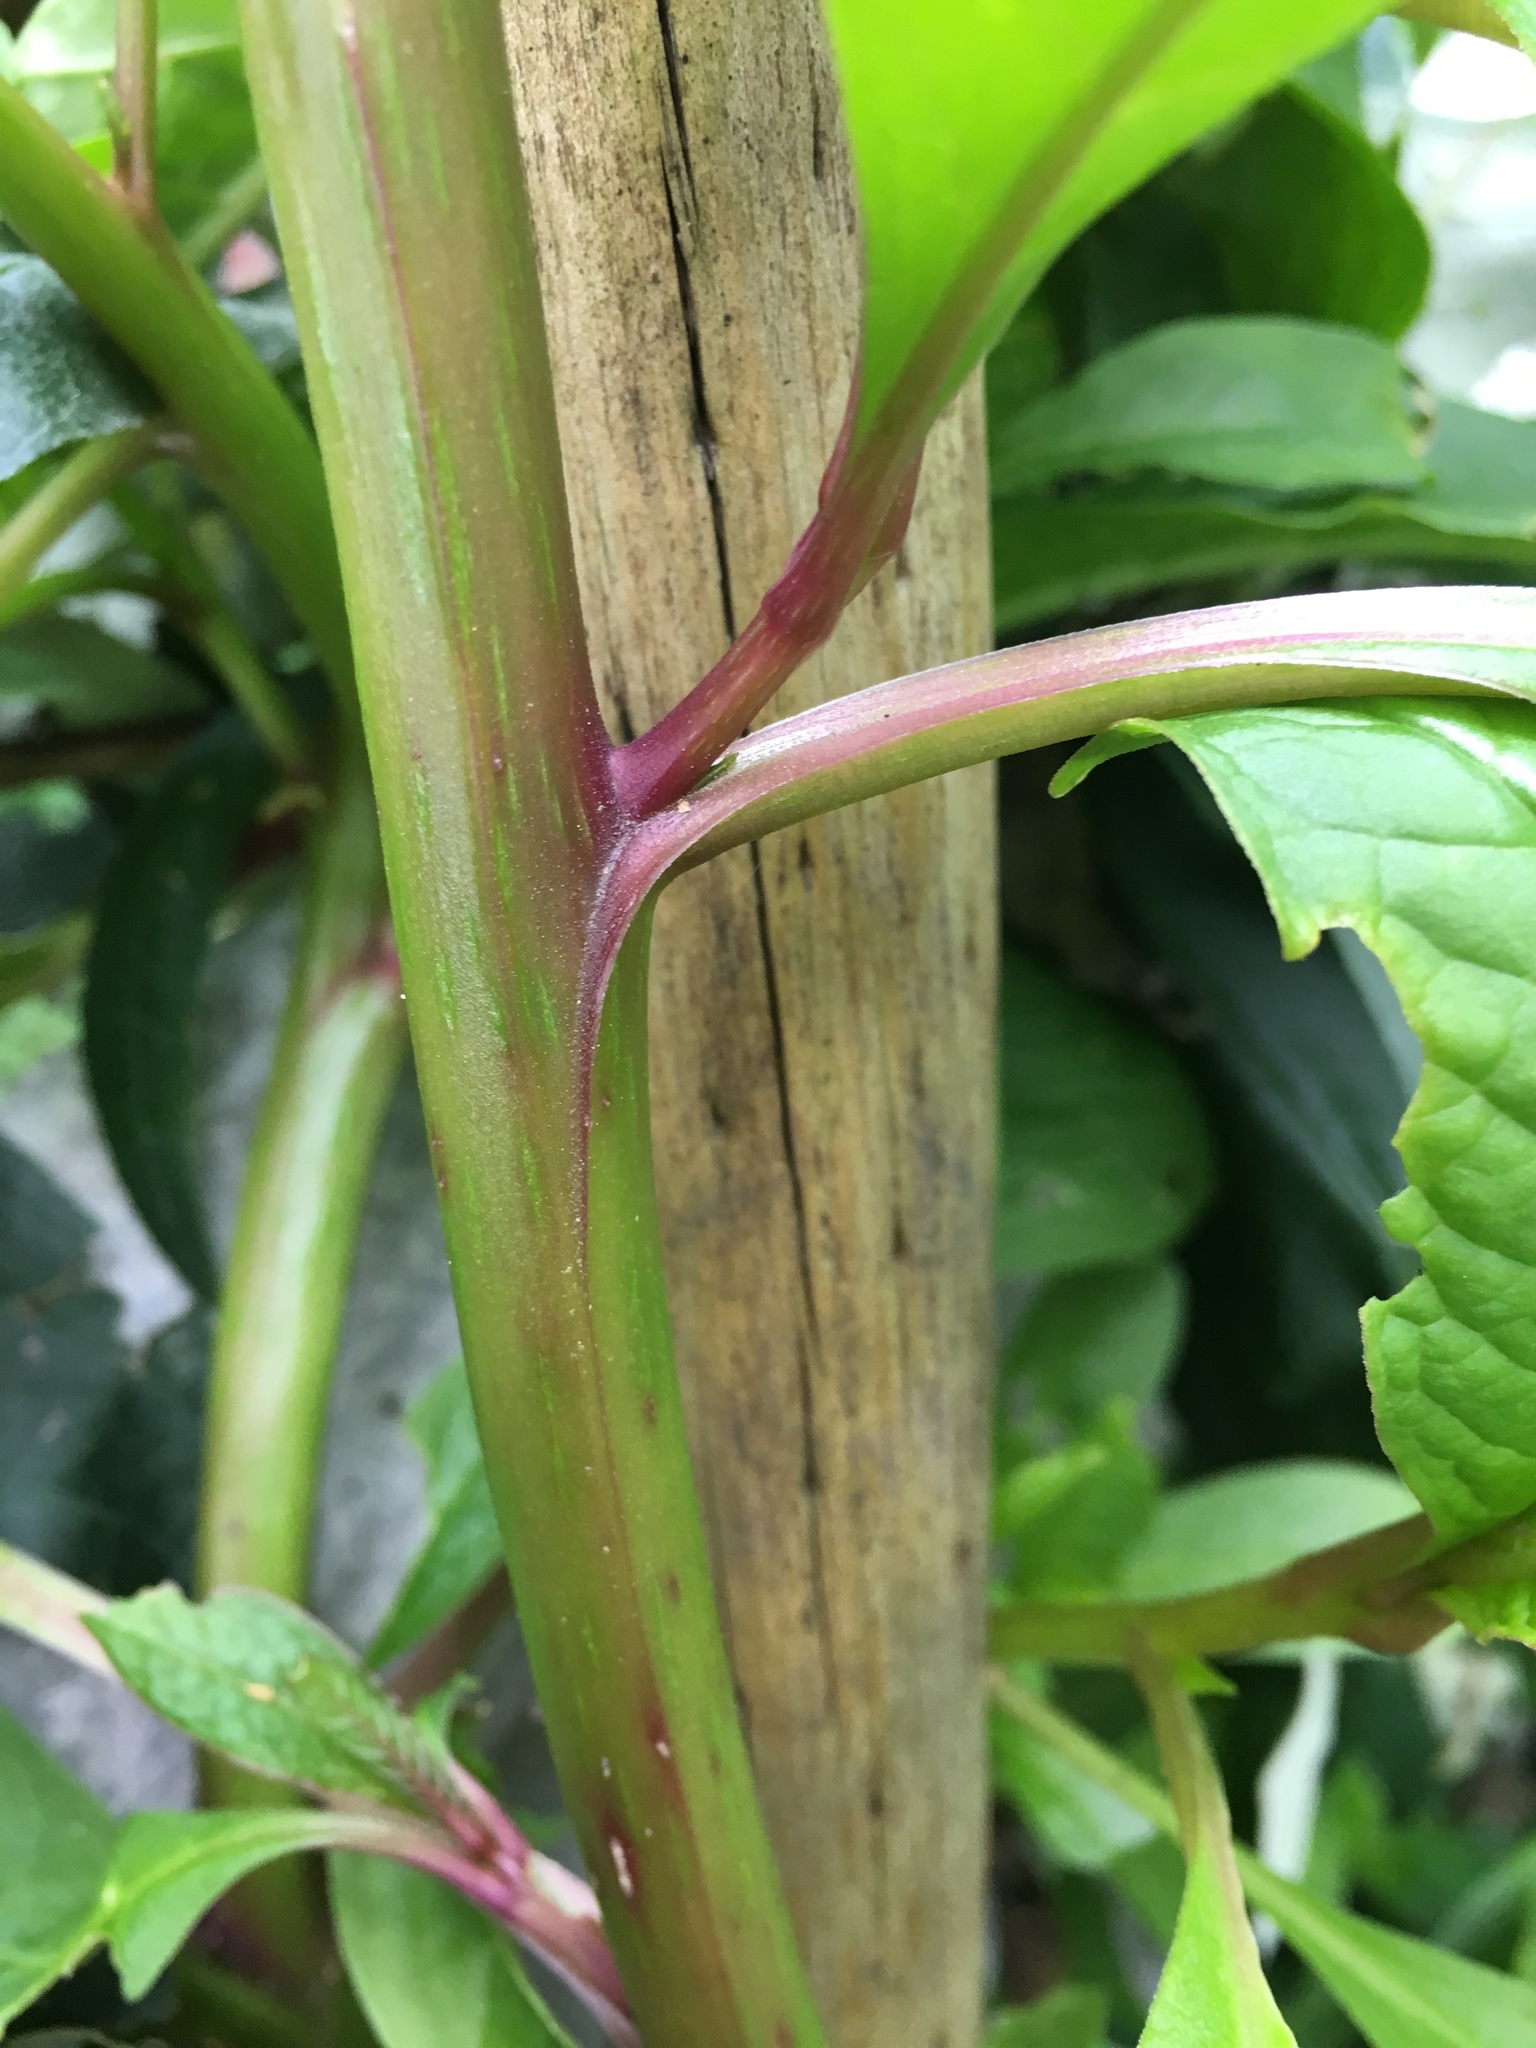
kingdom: Plantae
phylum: Tracheophyta
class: Magnoliopsida
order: Caryophyllales
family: Phytolaccaceae
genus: Phytolacca
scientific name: Phytolacca bogotensis
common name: Southern pokeweed
